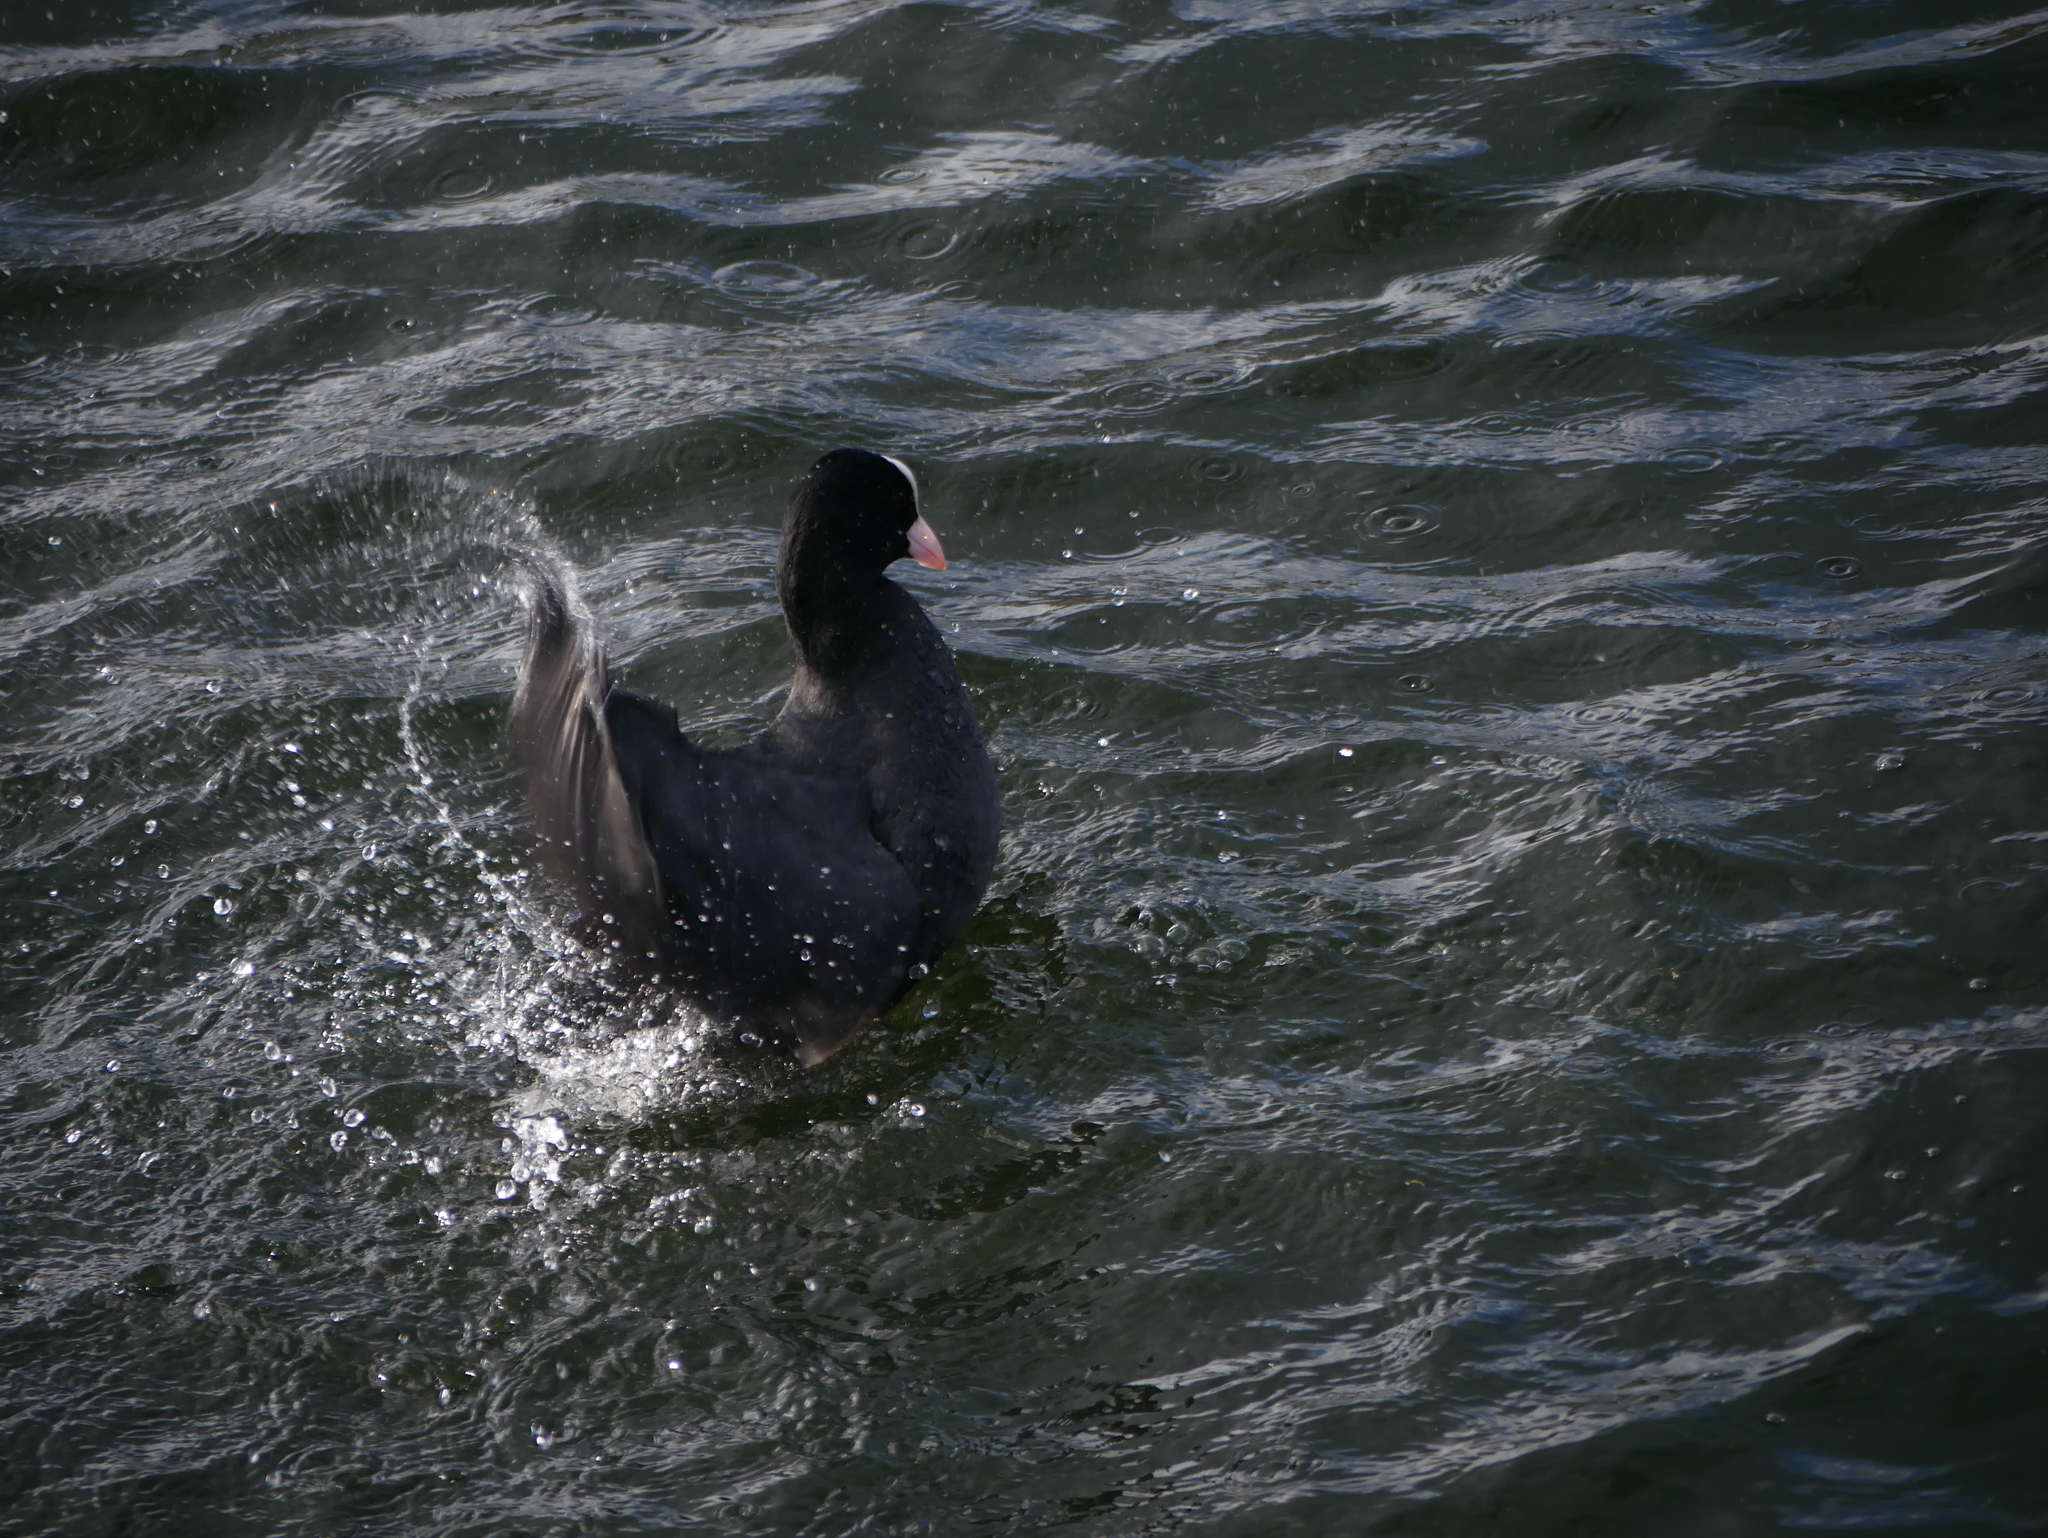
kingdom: Animalia
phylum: Chordata
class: Aves
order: Gruiformes
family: Rallidae
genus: Fulica
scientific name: Fulica atra
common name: Eurasian coot
